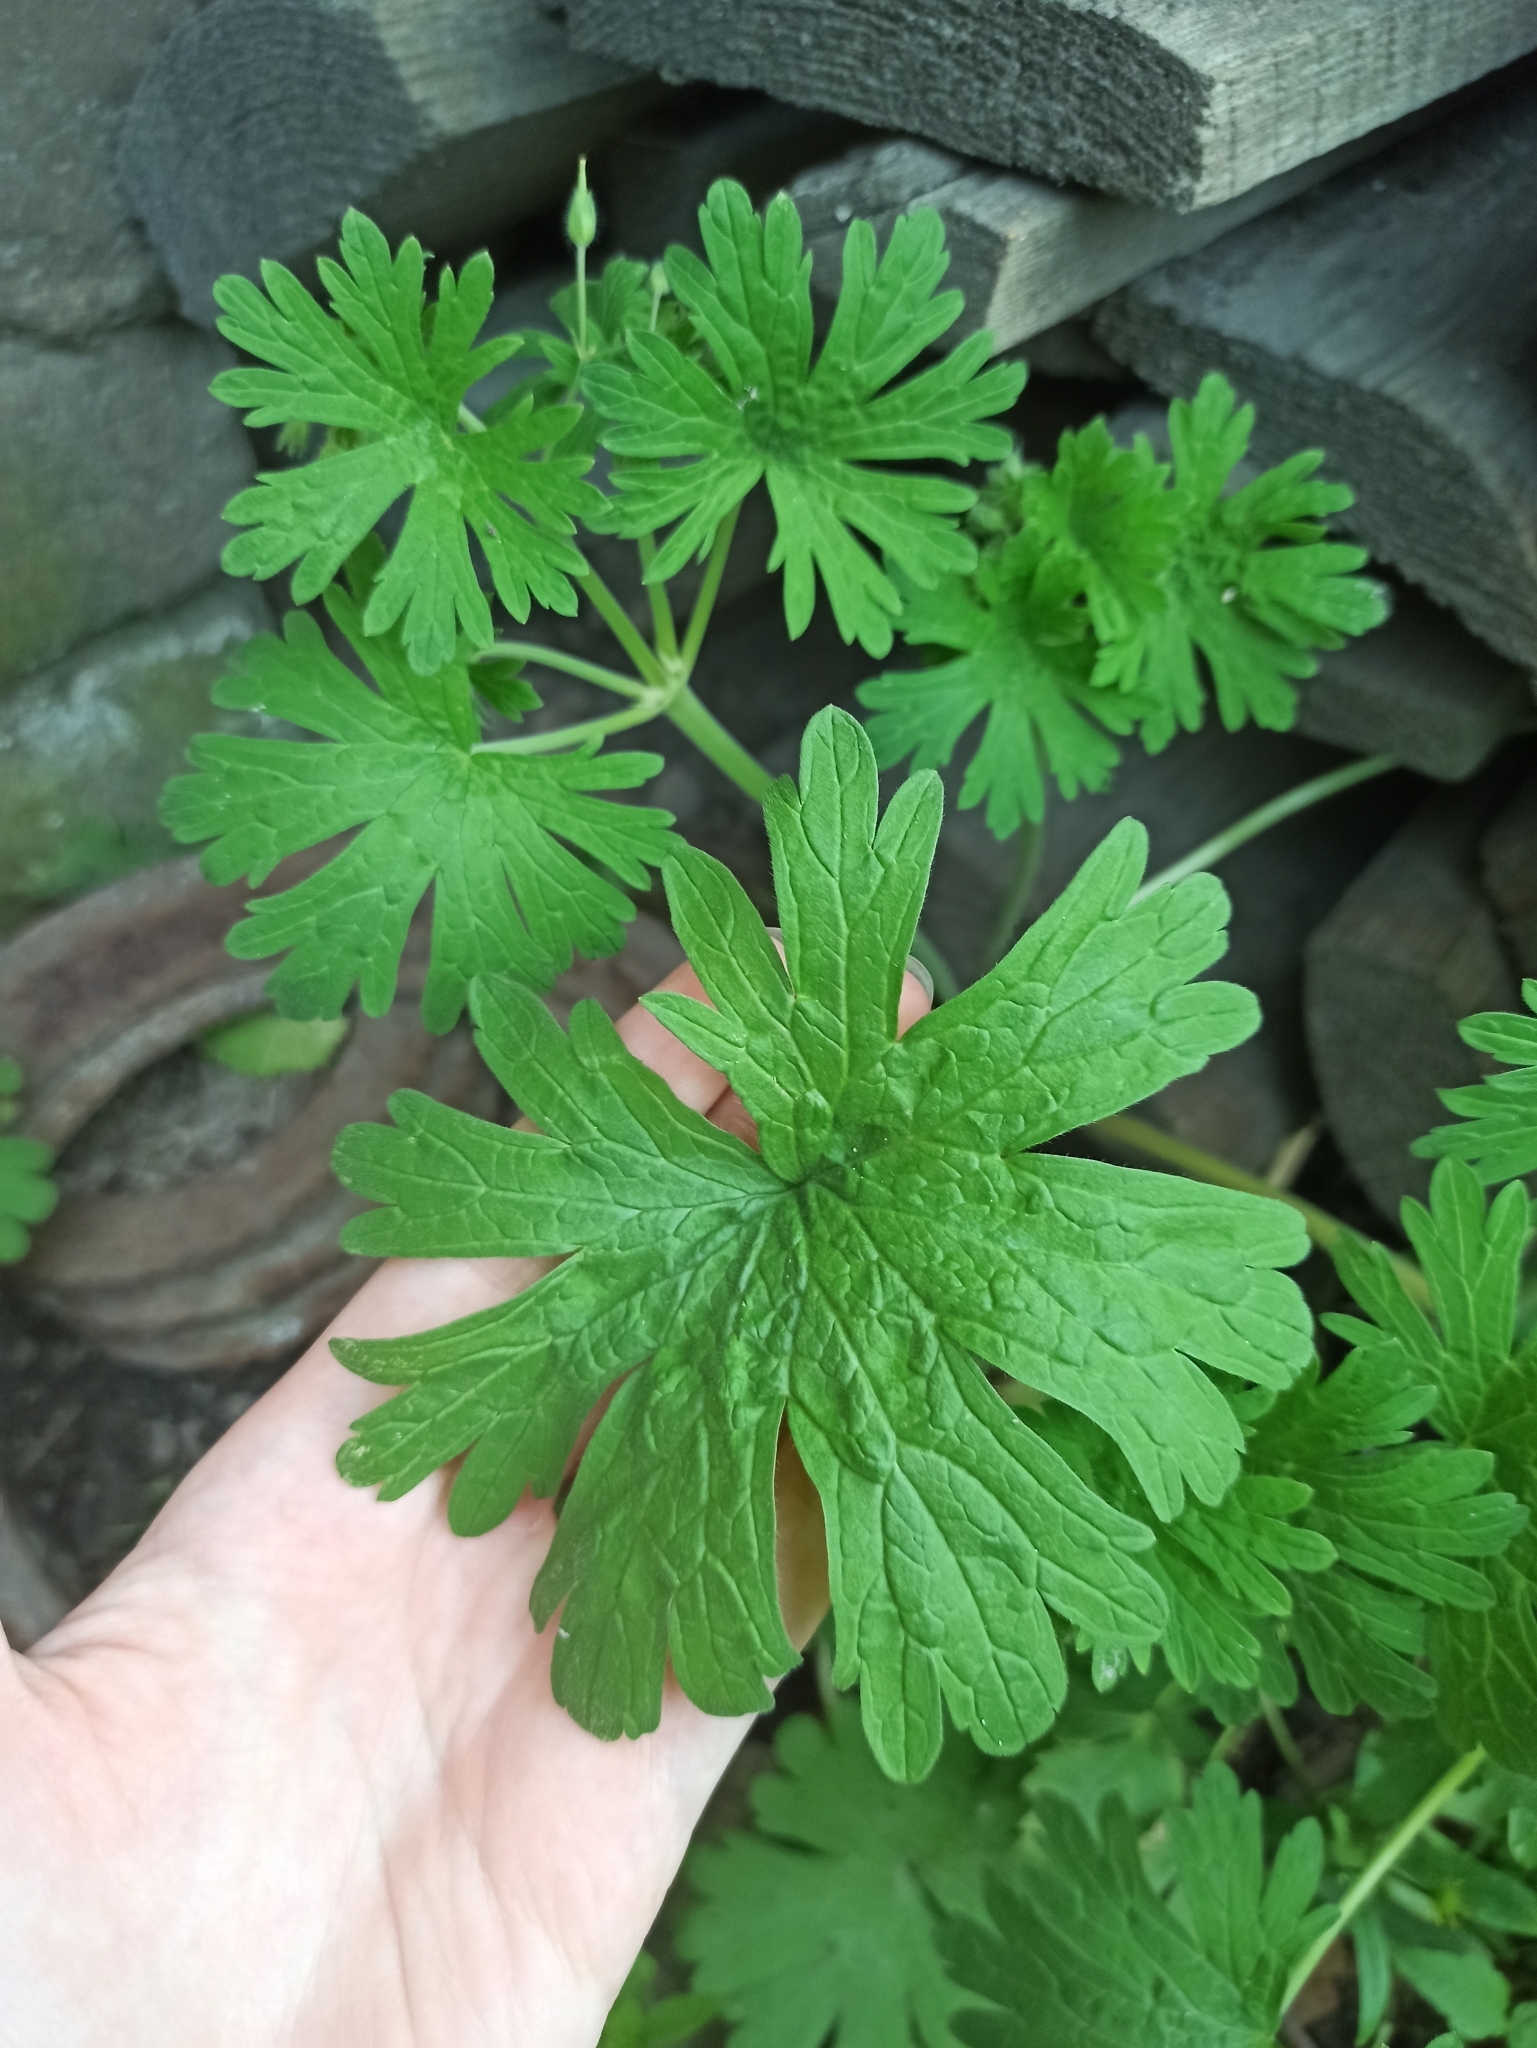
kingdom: Plantae
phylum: Tracheophyta
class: Magnoliopsida
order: Geraniales
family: Geraniaceae
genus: Geranium
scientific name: Geranium pusillum
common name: Small geranium
